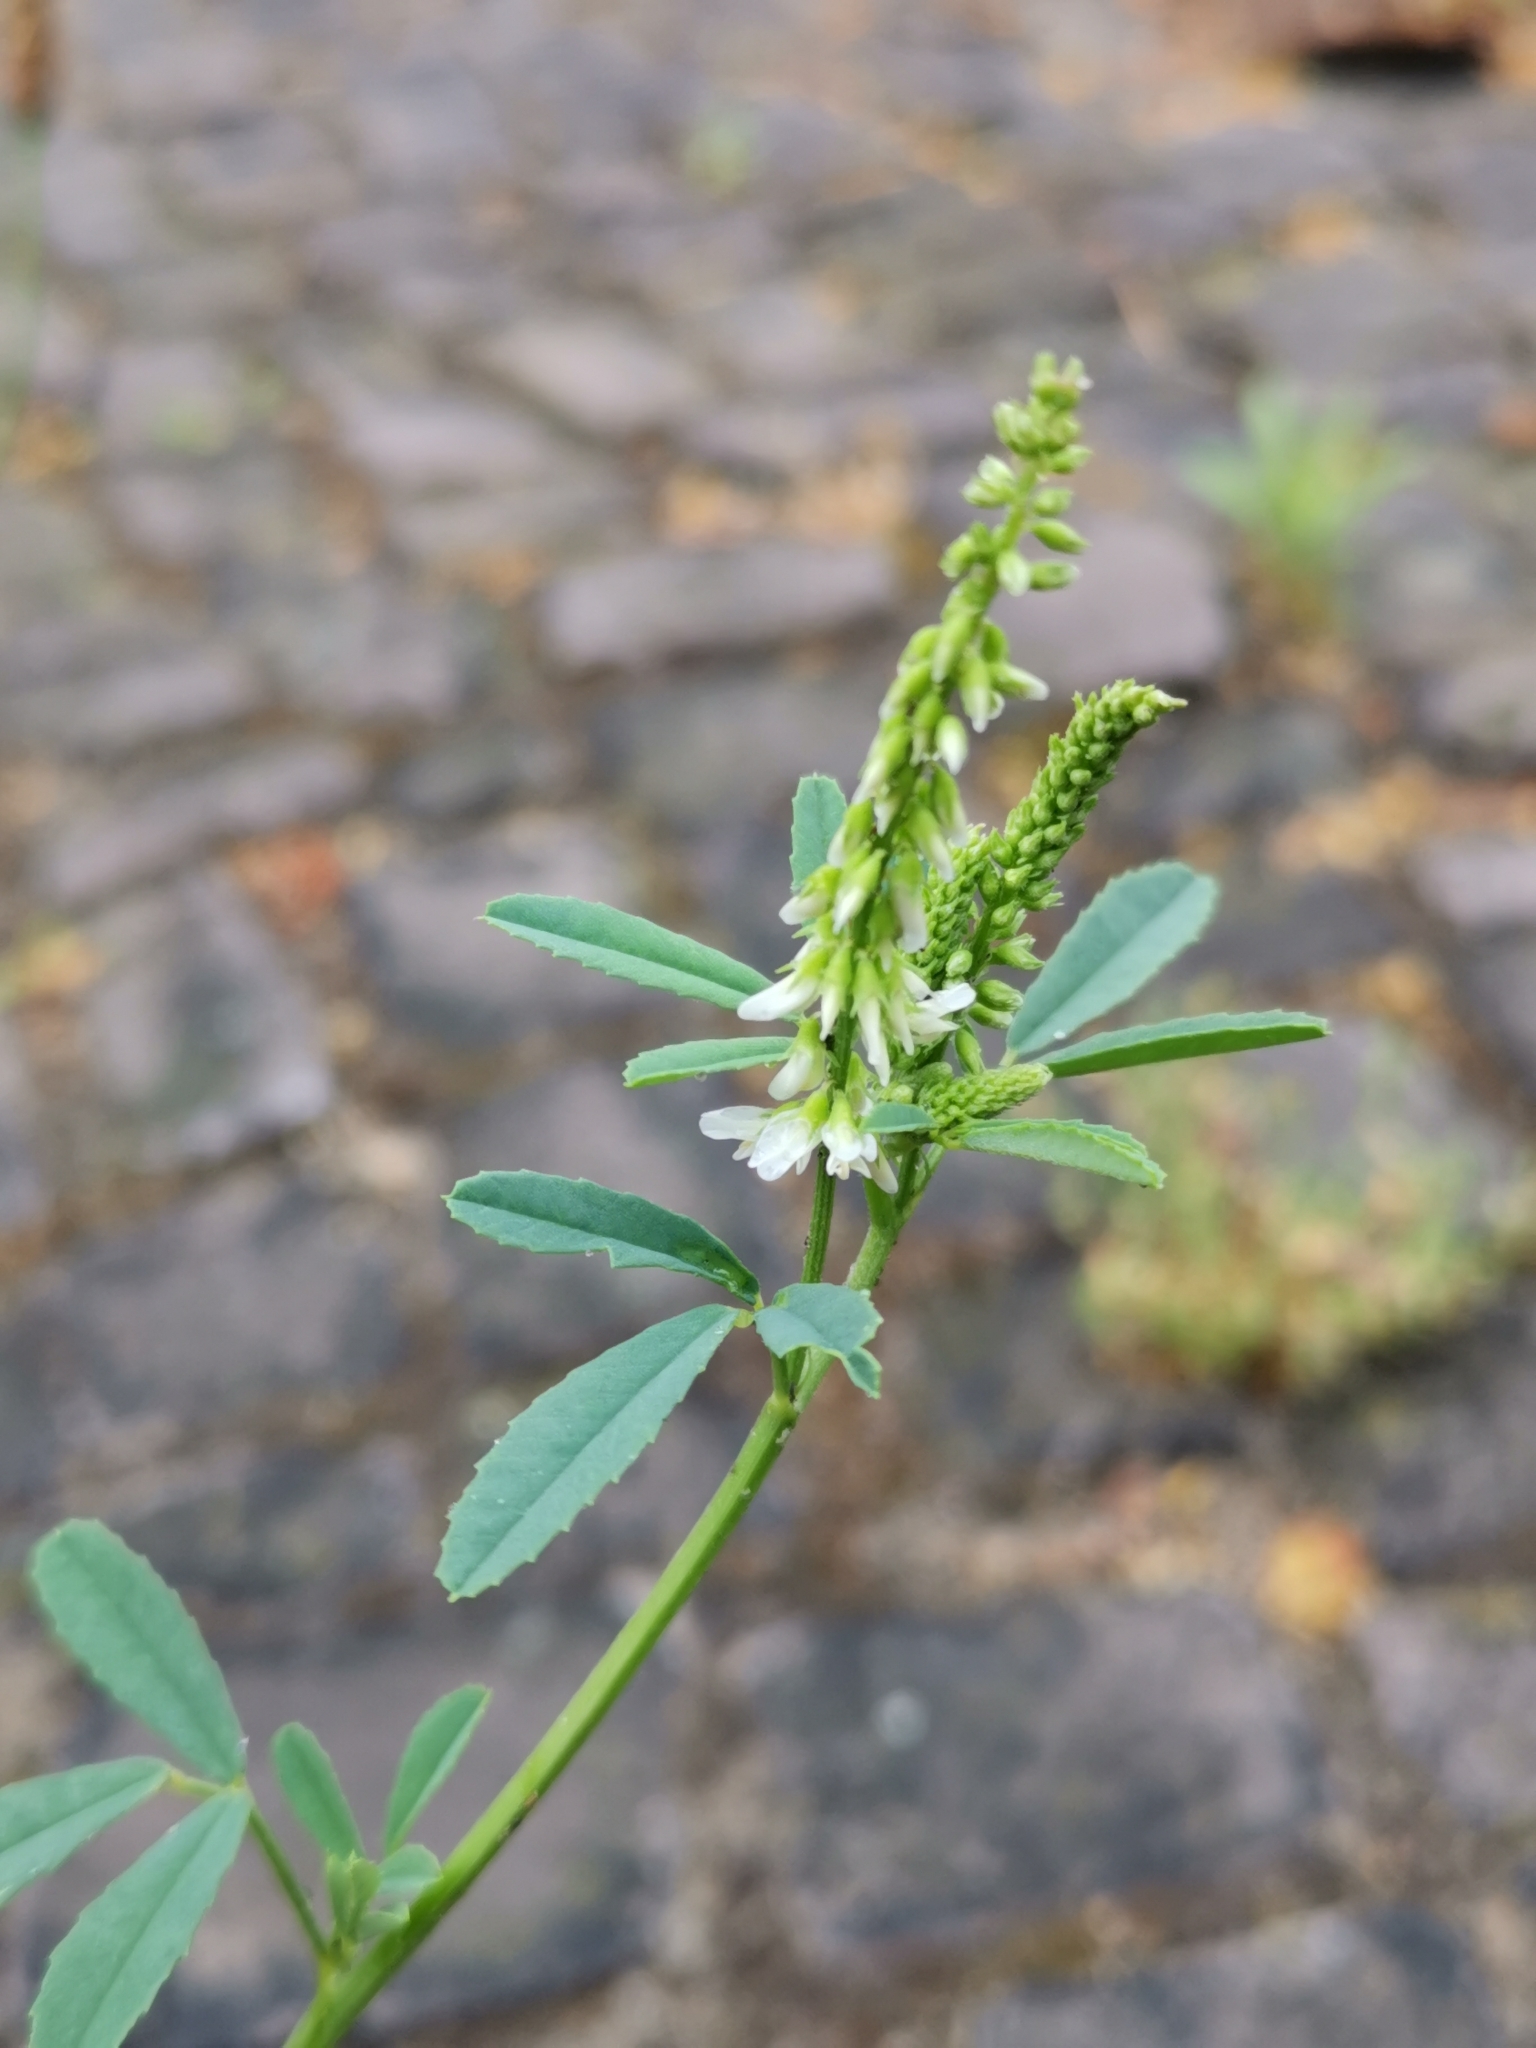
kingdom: Plantae
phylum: Tracheophyta
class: Magnoliopsida
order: Fabales
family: Fabaceae
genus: Melilotus
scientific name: Melilotus albus
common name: White melilot
